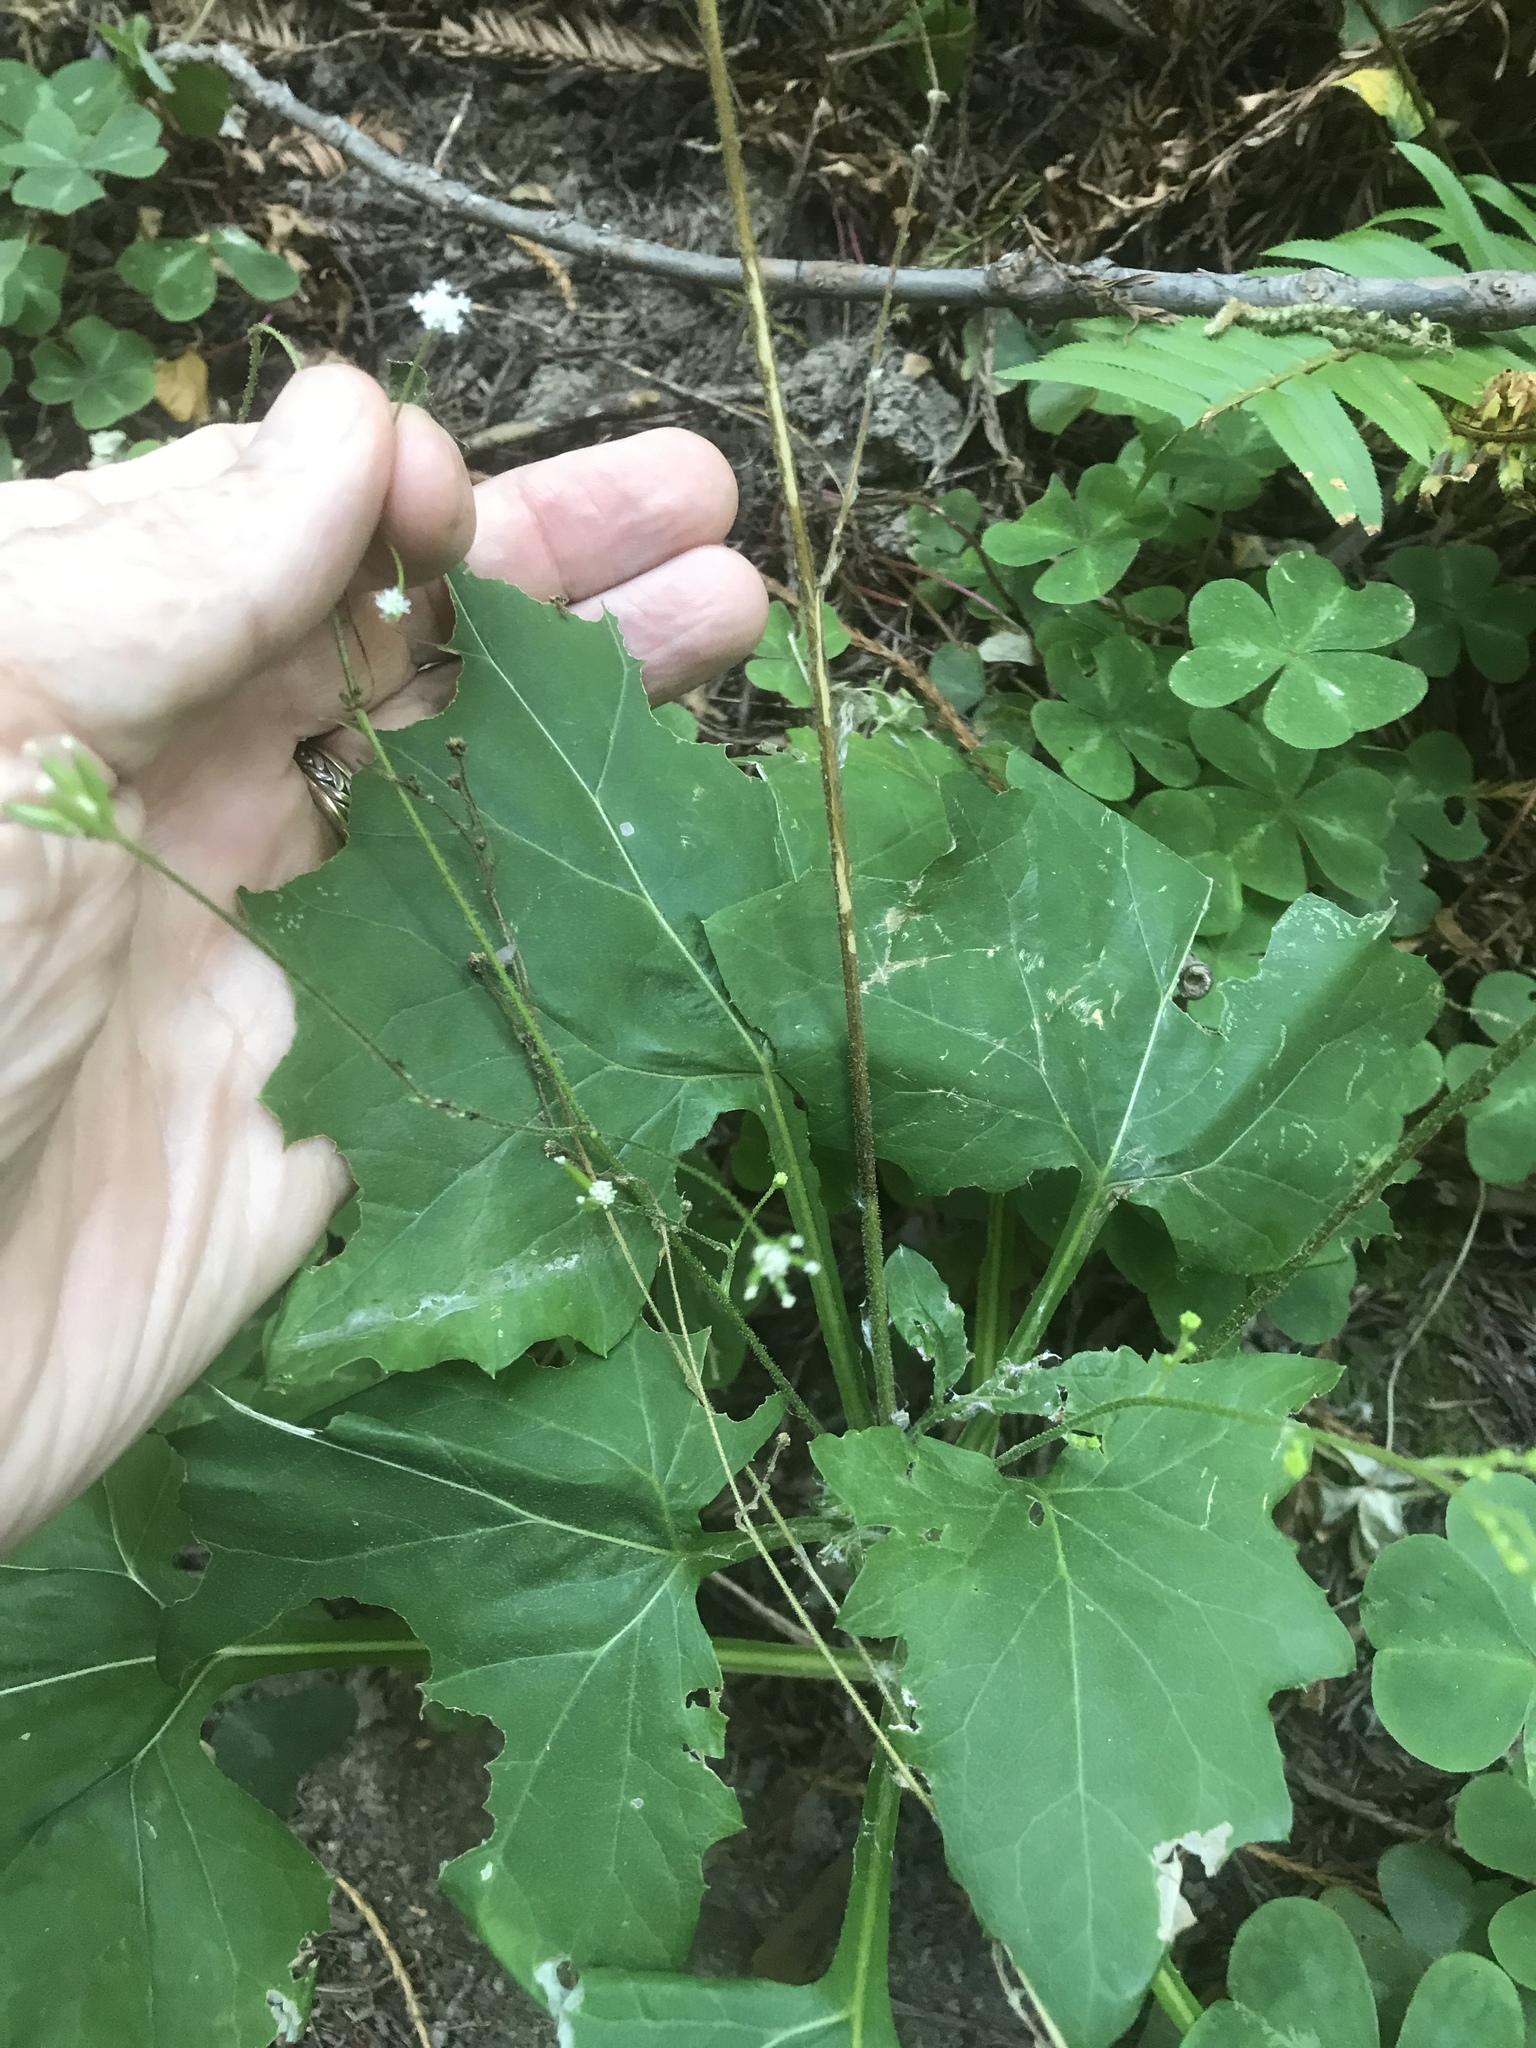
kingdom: Plantae
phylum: Tracheophyta
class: Magnoliopsida
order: Asterales
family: Asteraceae
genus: Adenocaulon
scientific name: Adenocaulon bicolor
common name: Trailplant
